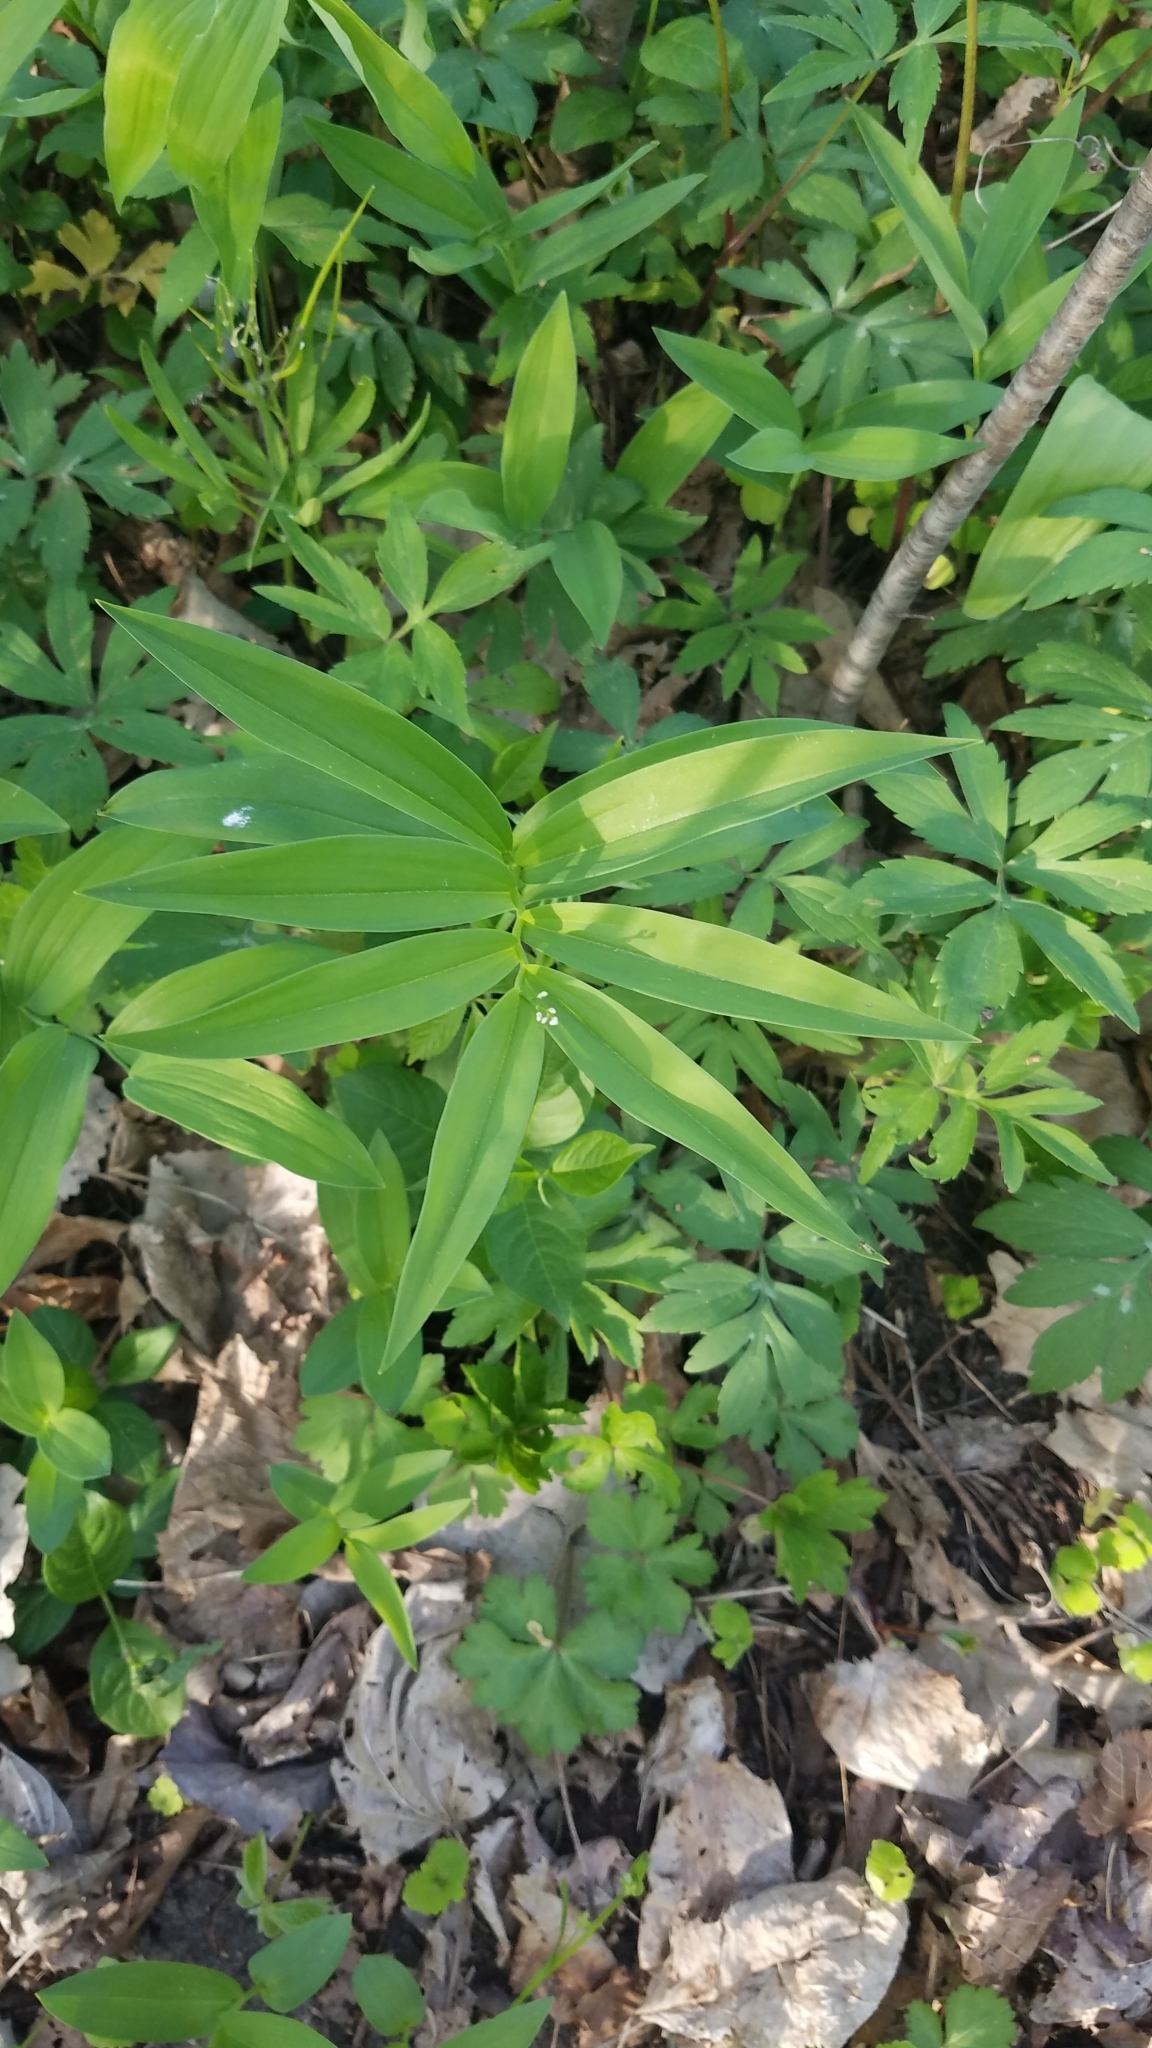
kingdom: Plantae
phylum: Tracheophyta
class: Liliopsida
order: Asparagales
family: Asparagaceae
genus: Maianthemum
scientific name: Maianthemum stellatum
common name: Little false solomon's seal
